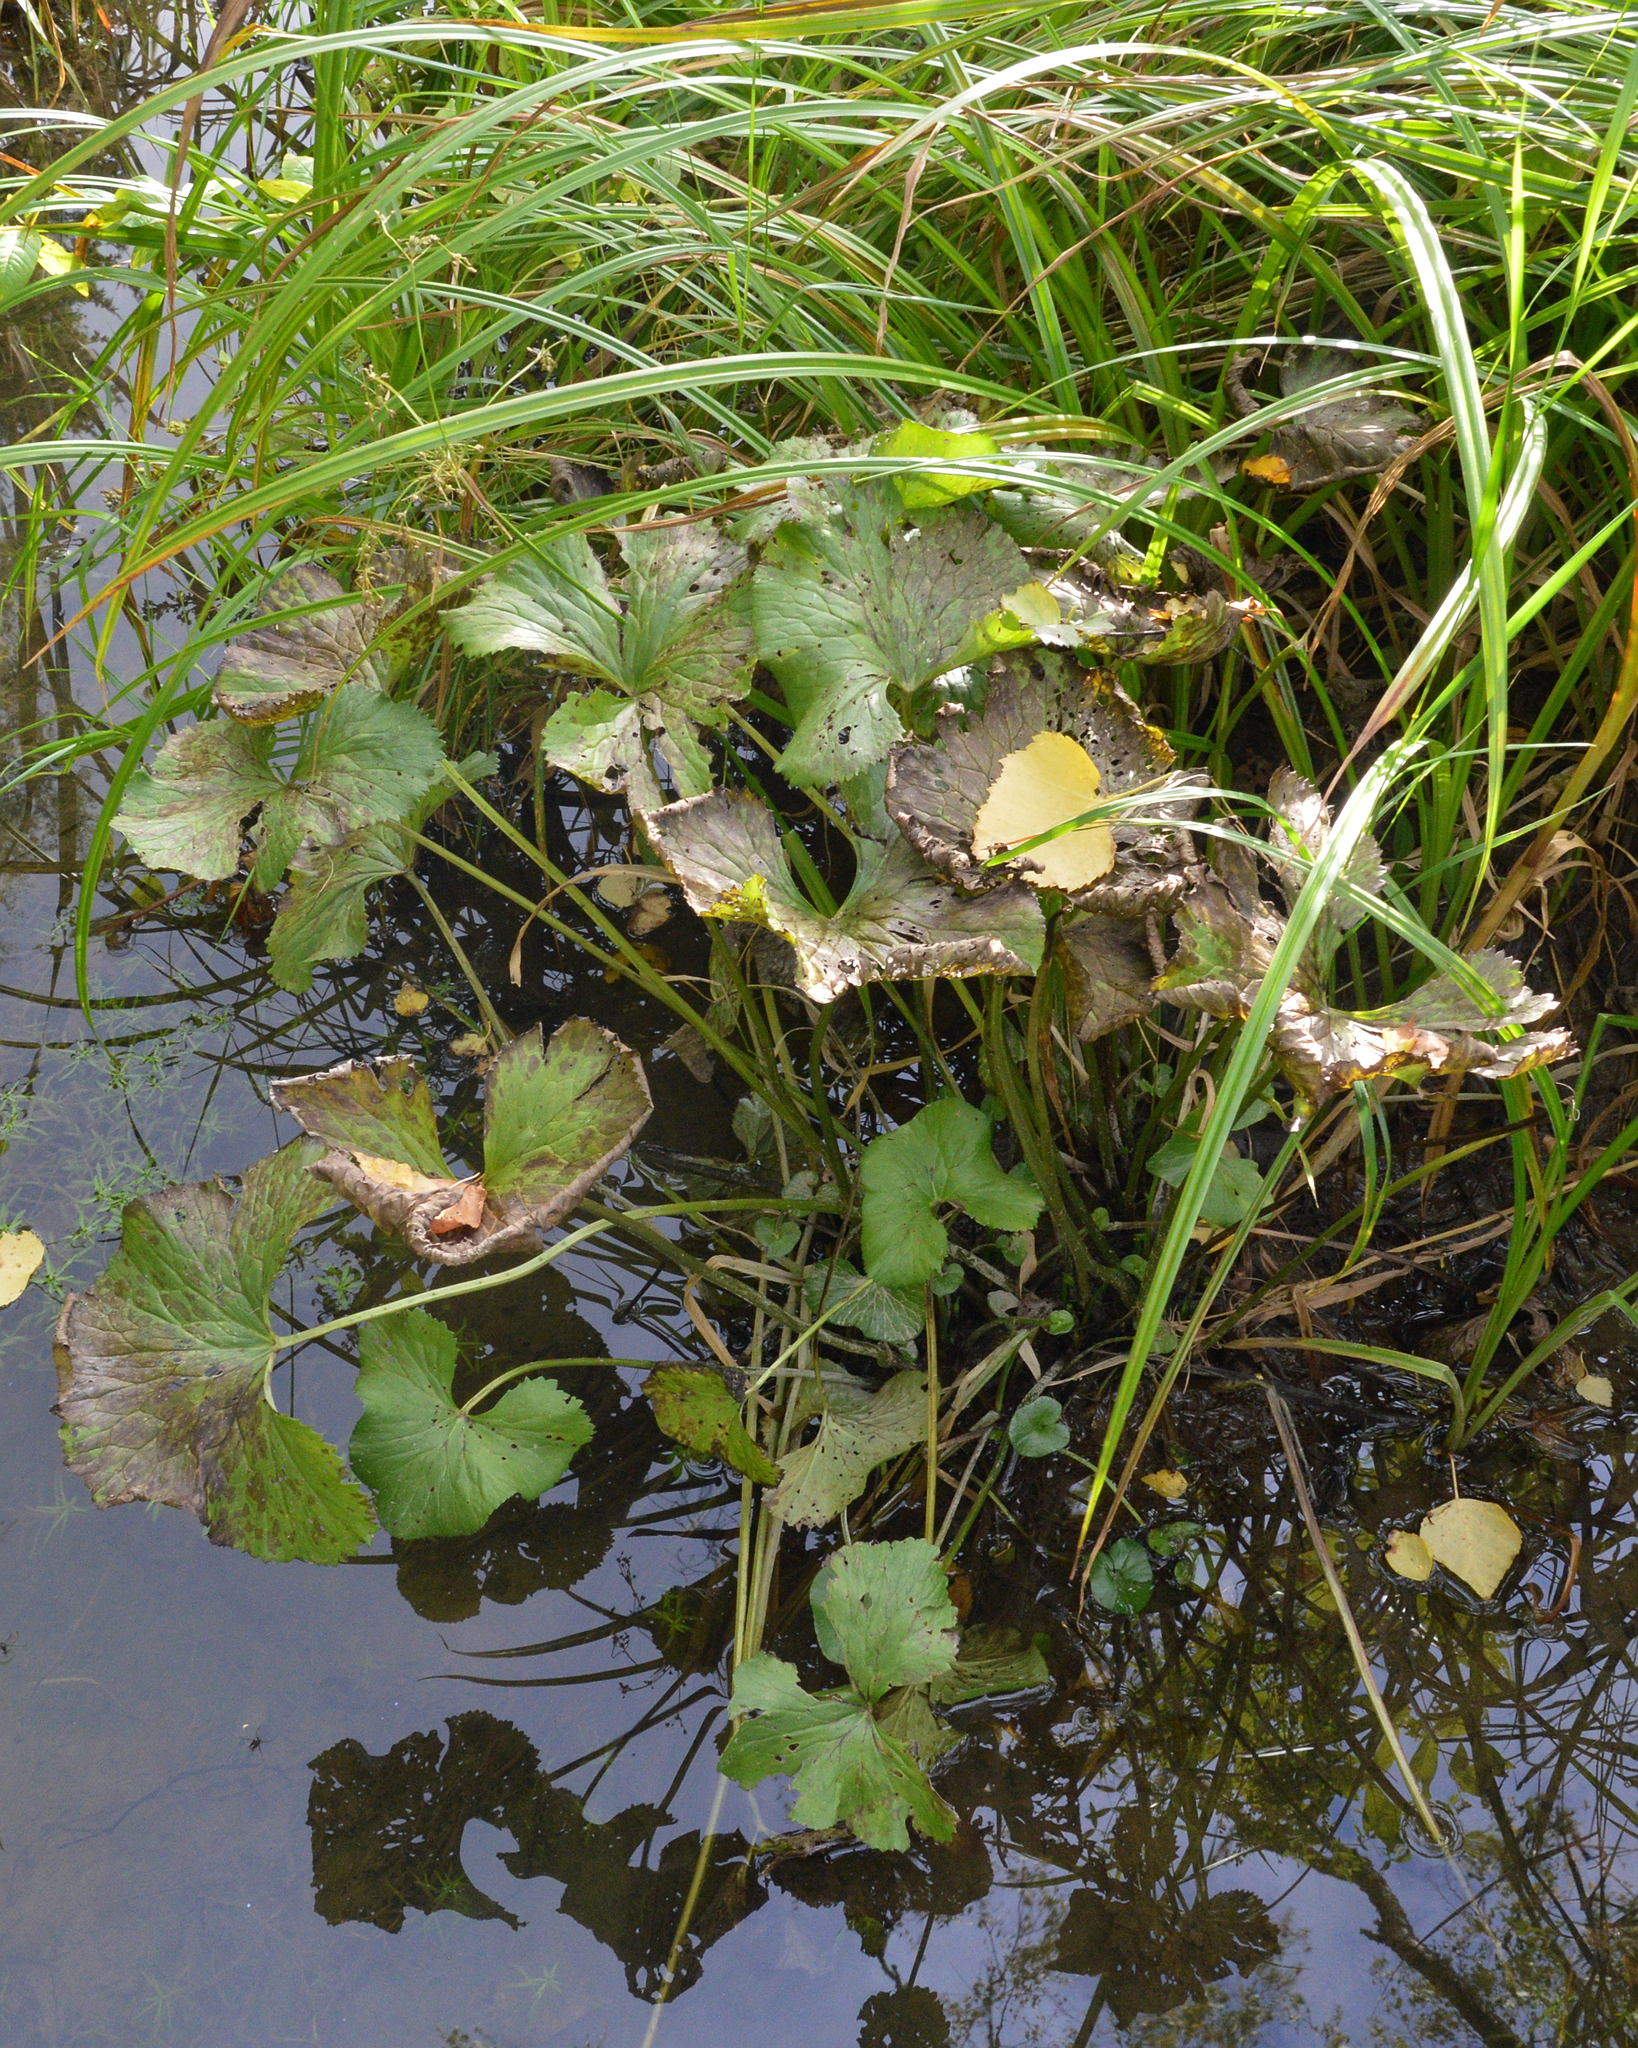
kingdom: Plantae
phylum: Tracheophyta
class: Magnoliopsida
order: Ranunculales
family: Ranunculaceae
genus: Caltha
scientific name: Caltha palustris
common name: Marsh marigold
